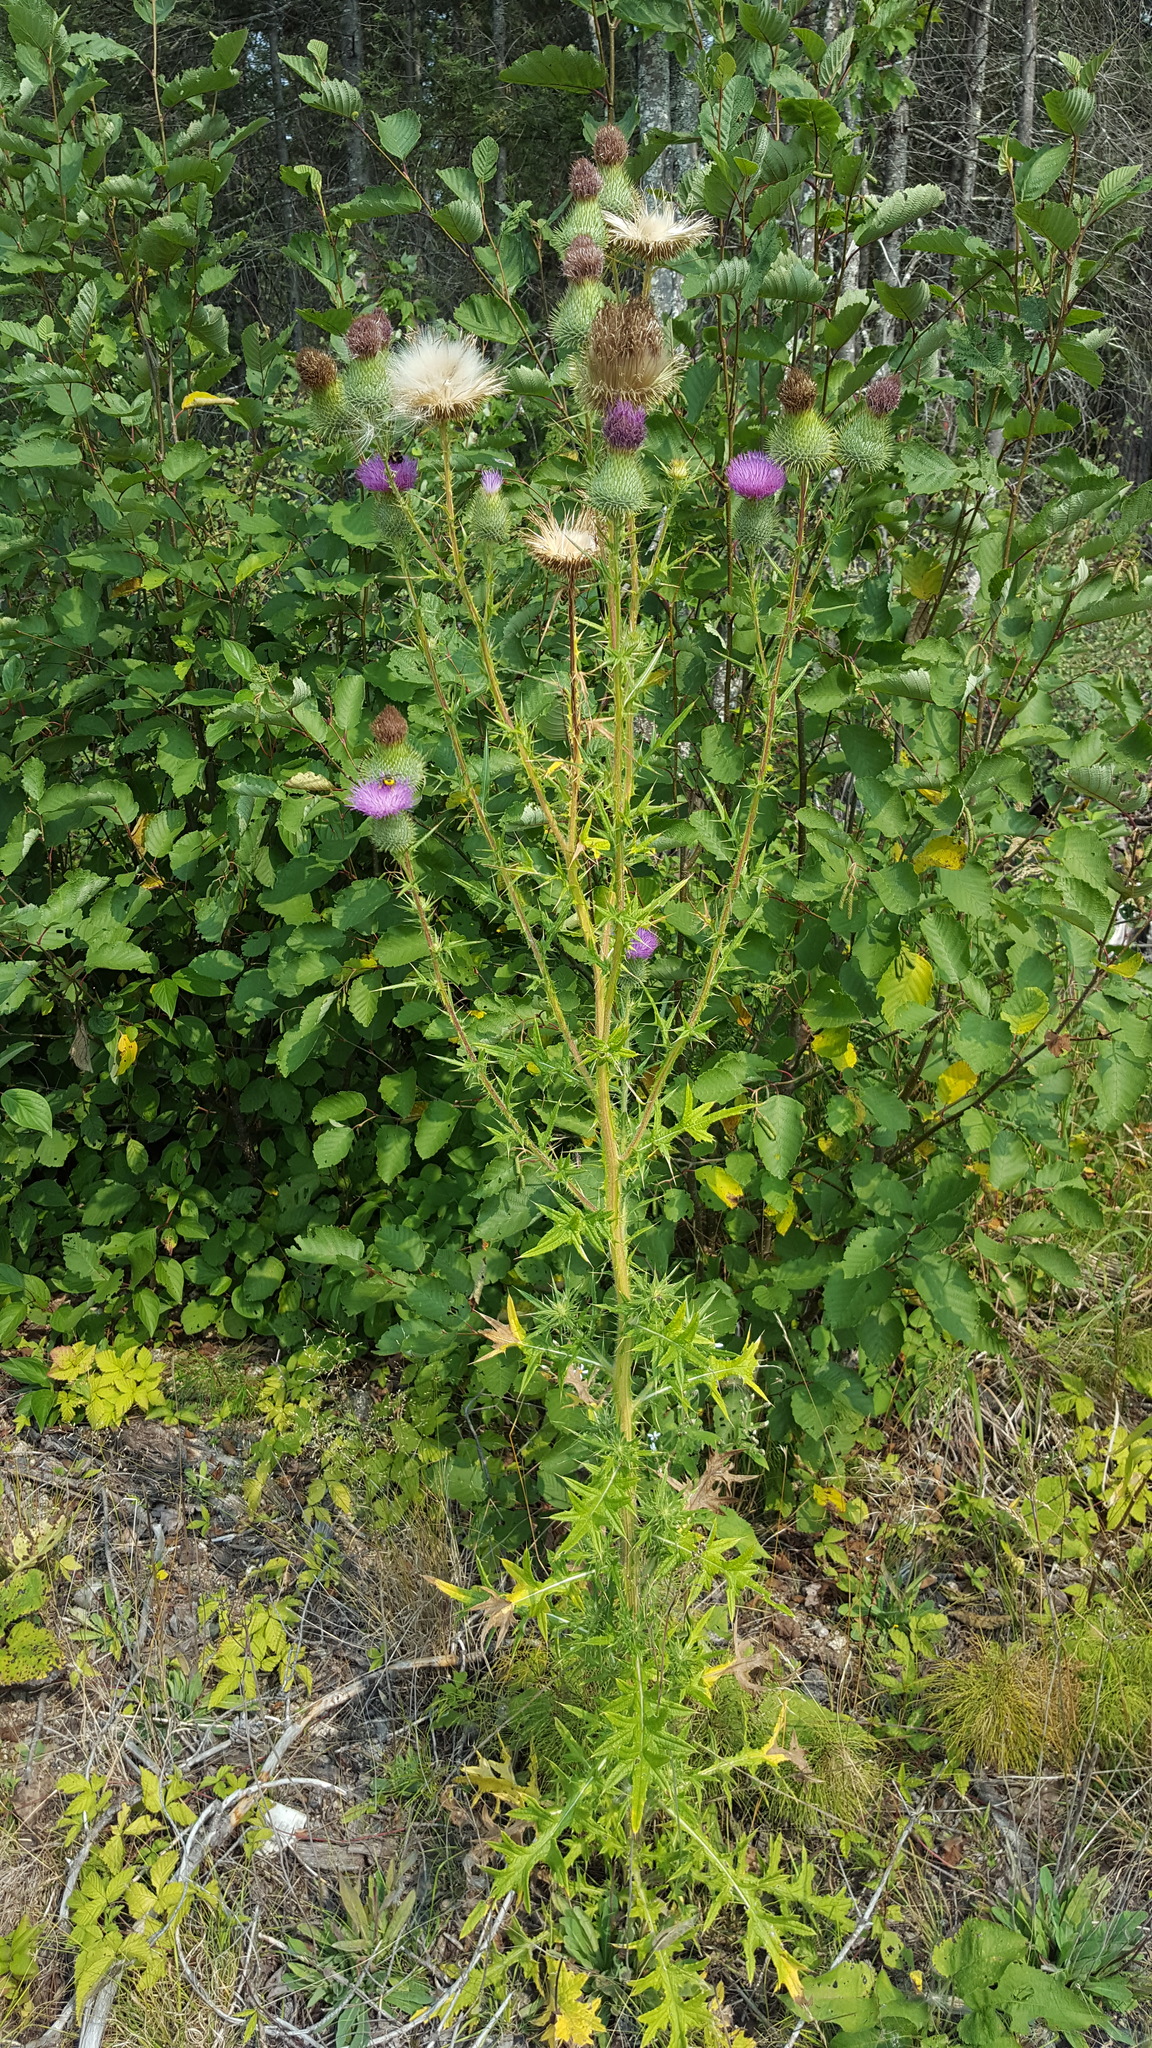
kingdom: Plantae
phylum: Tracheophyta
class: Magnoliopsida
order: Asterales
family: Asteraceae
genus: Cirsium
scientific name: Cirsium vulgare
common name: Bull thistle
